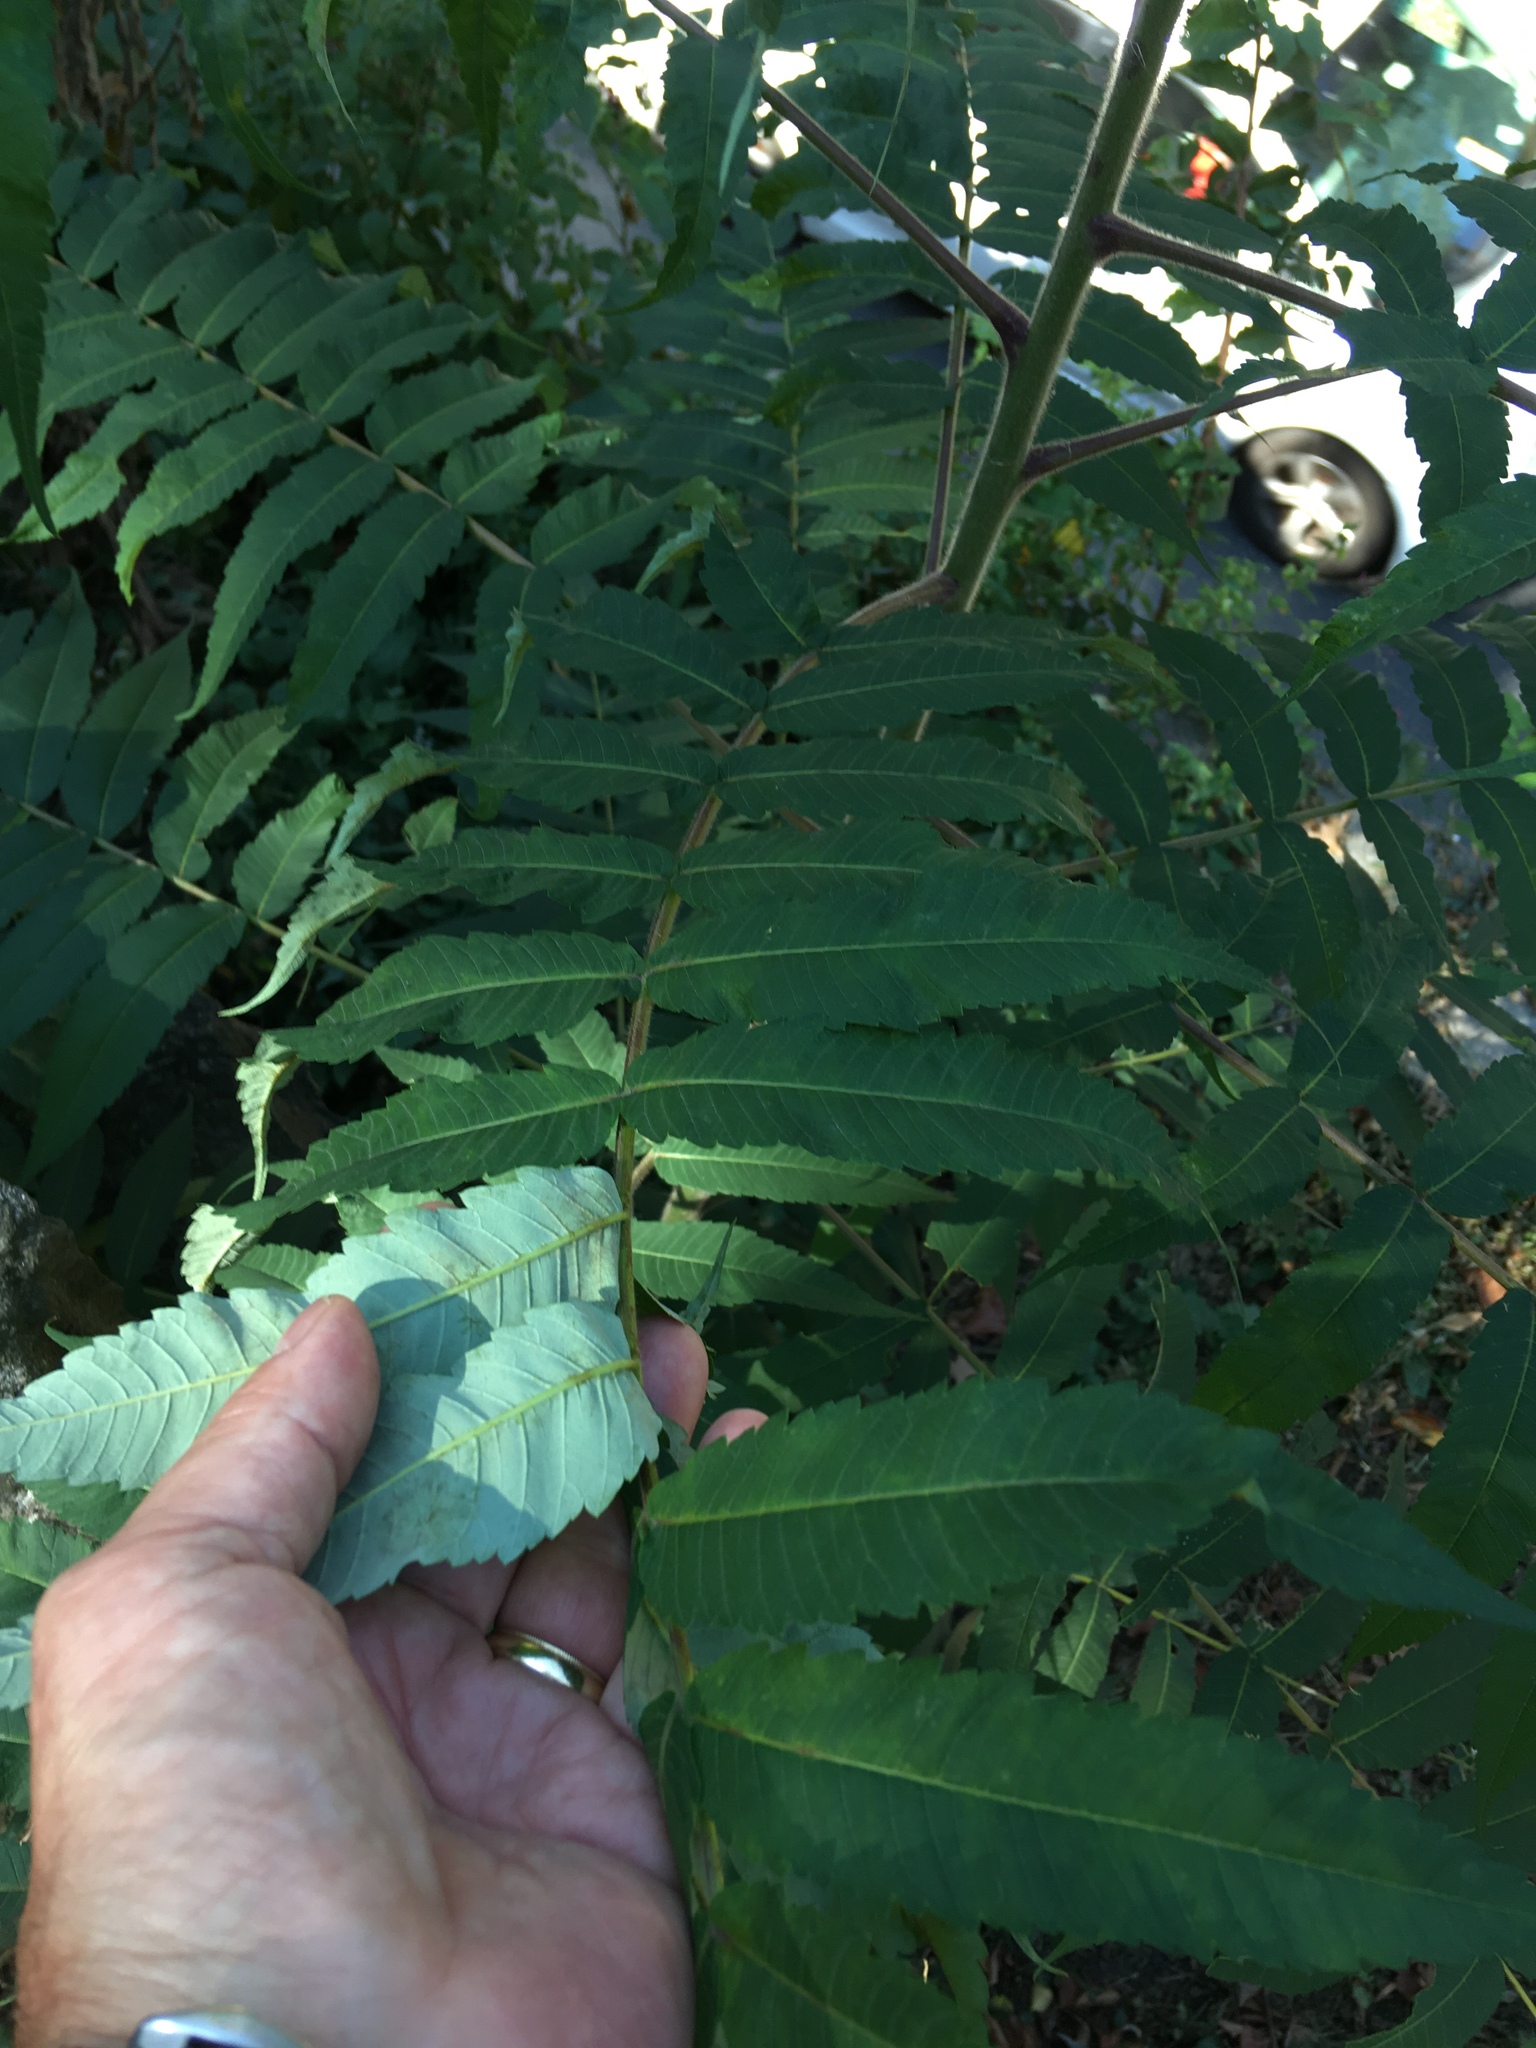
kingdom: Plantae
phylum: Tracheophyta
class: Magnoliopsida
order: Sapindales
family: Anacardiaceae
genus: Rhus
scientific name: Rhus typhina
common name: Staghorn sumac
